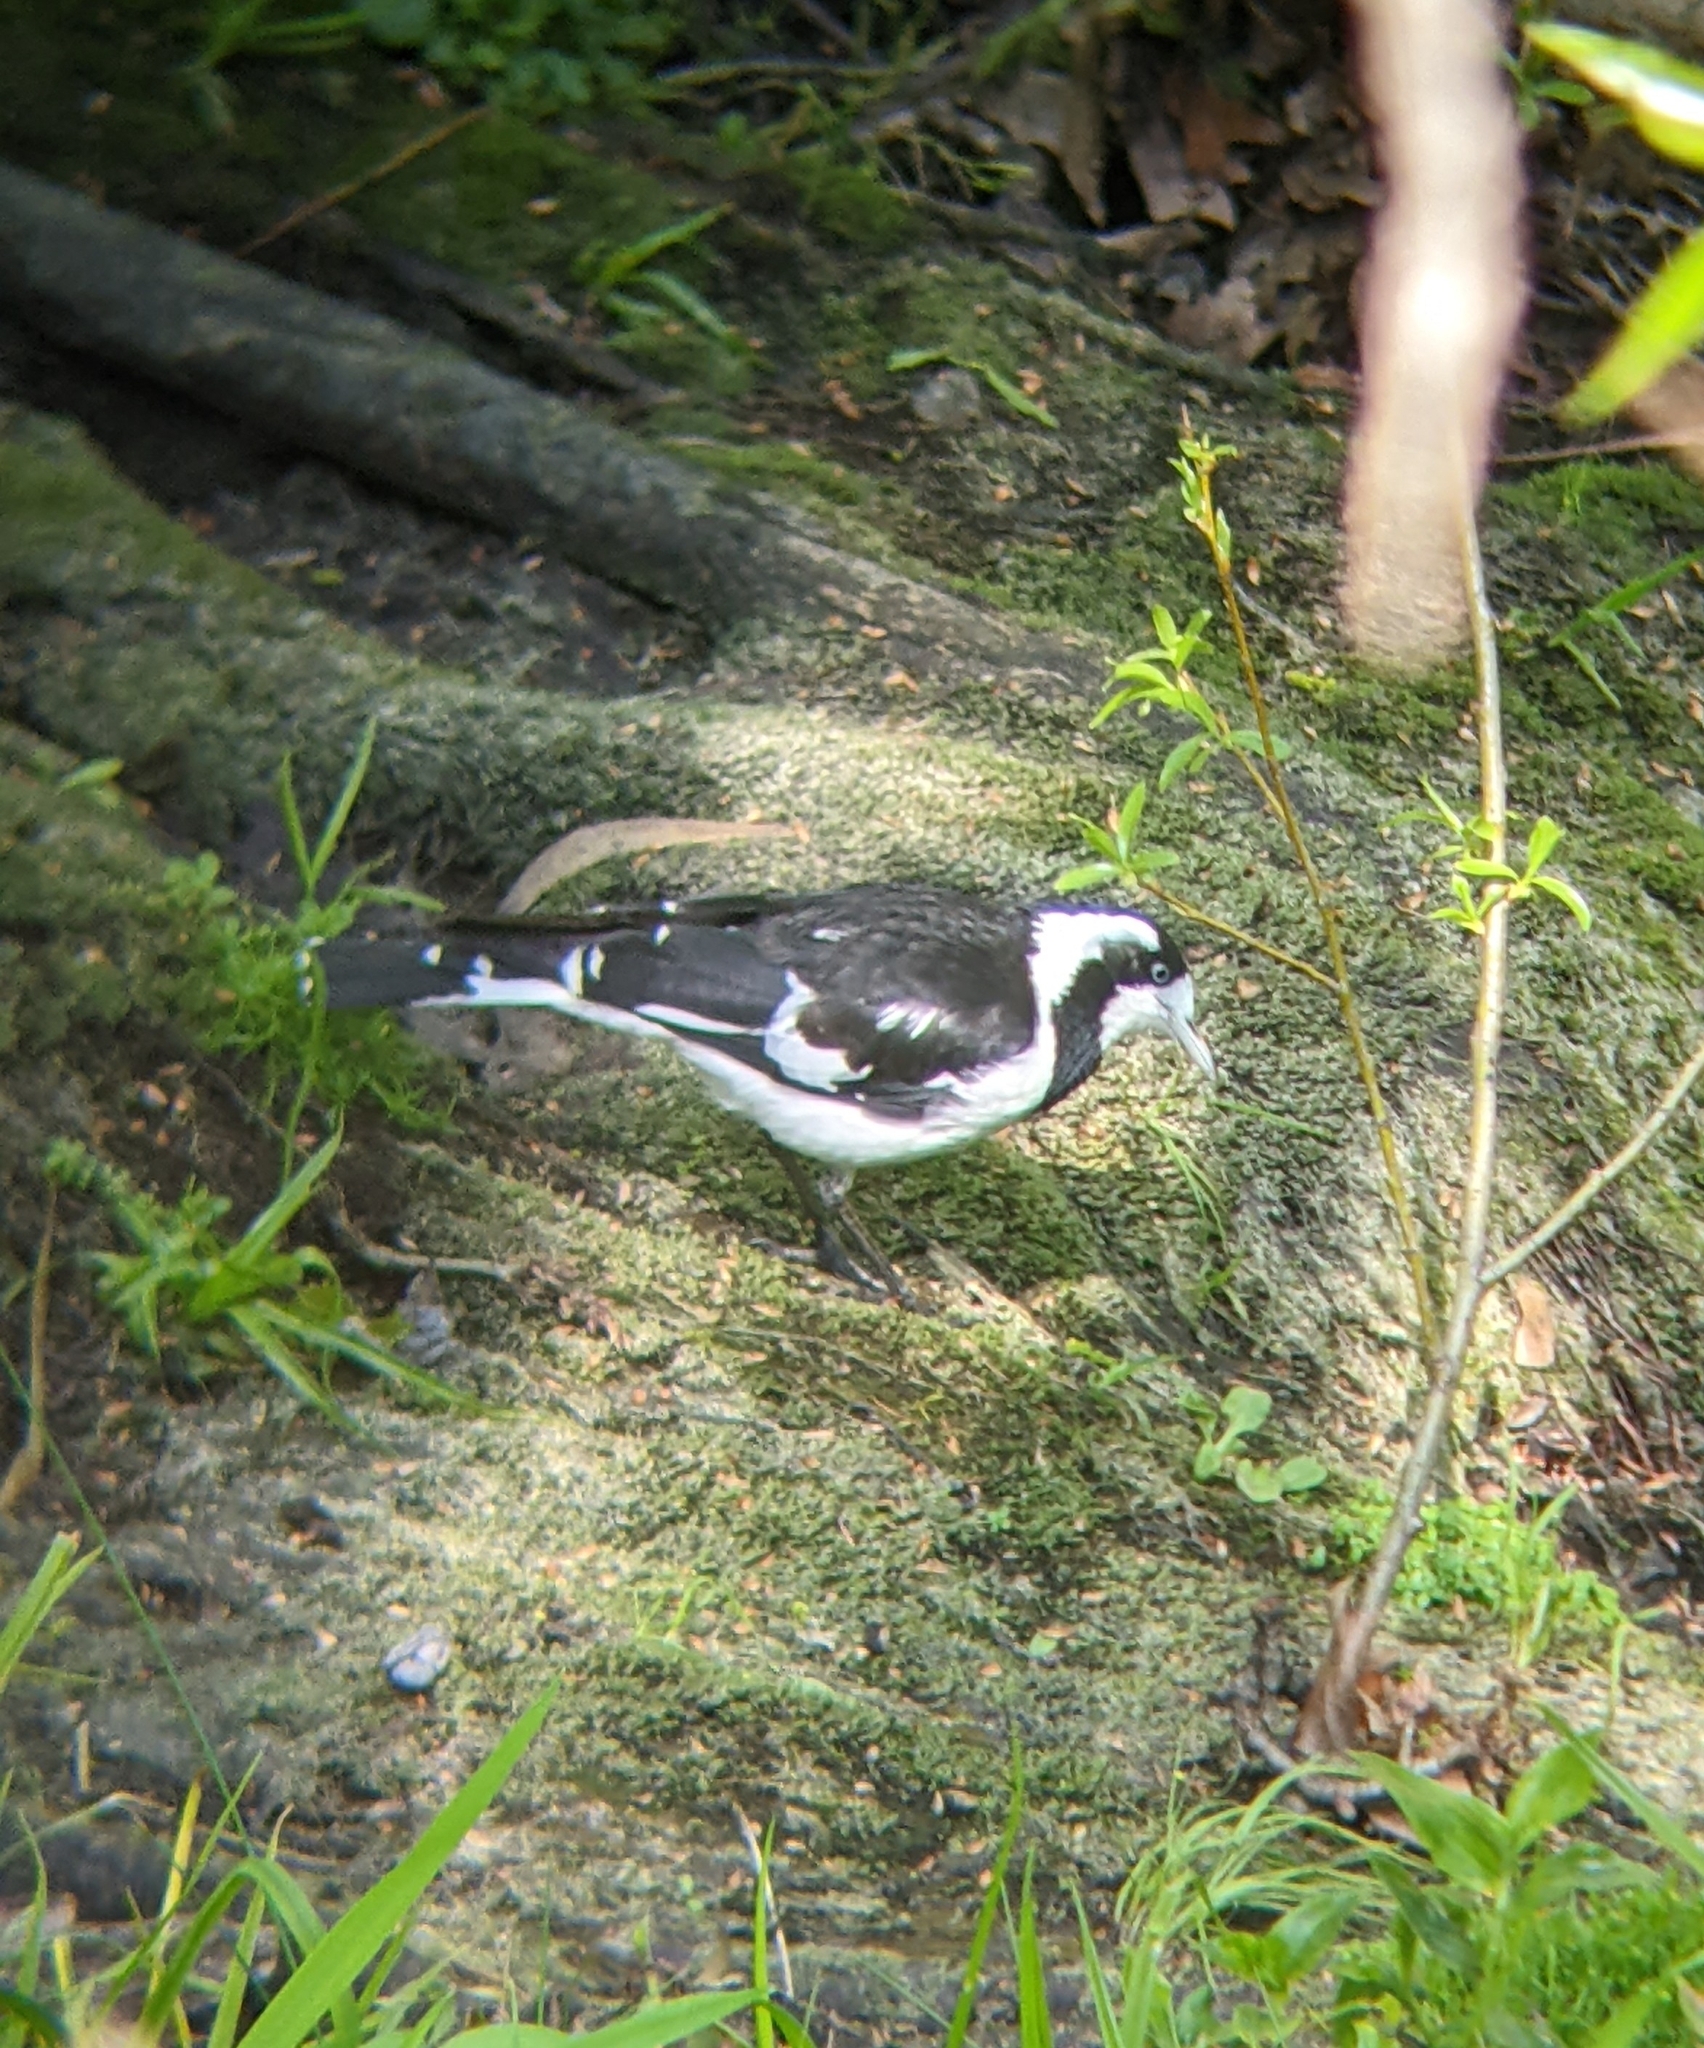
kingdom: Animalia
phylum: Chordata
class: Aves
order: Passeriformes
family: Monarchidae
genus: Grallina
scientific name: Grallina cyanoleuca
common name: Magpie-lark
